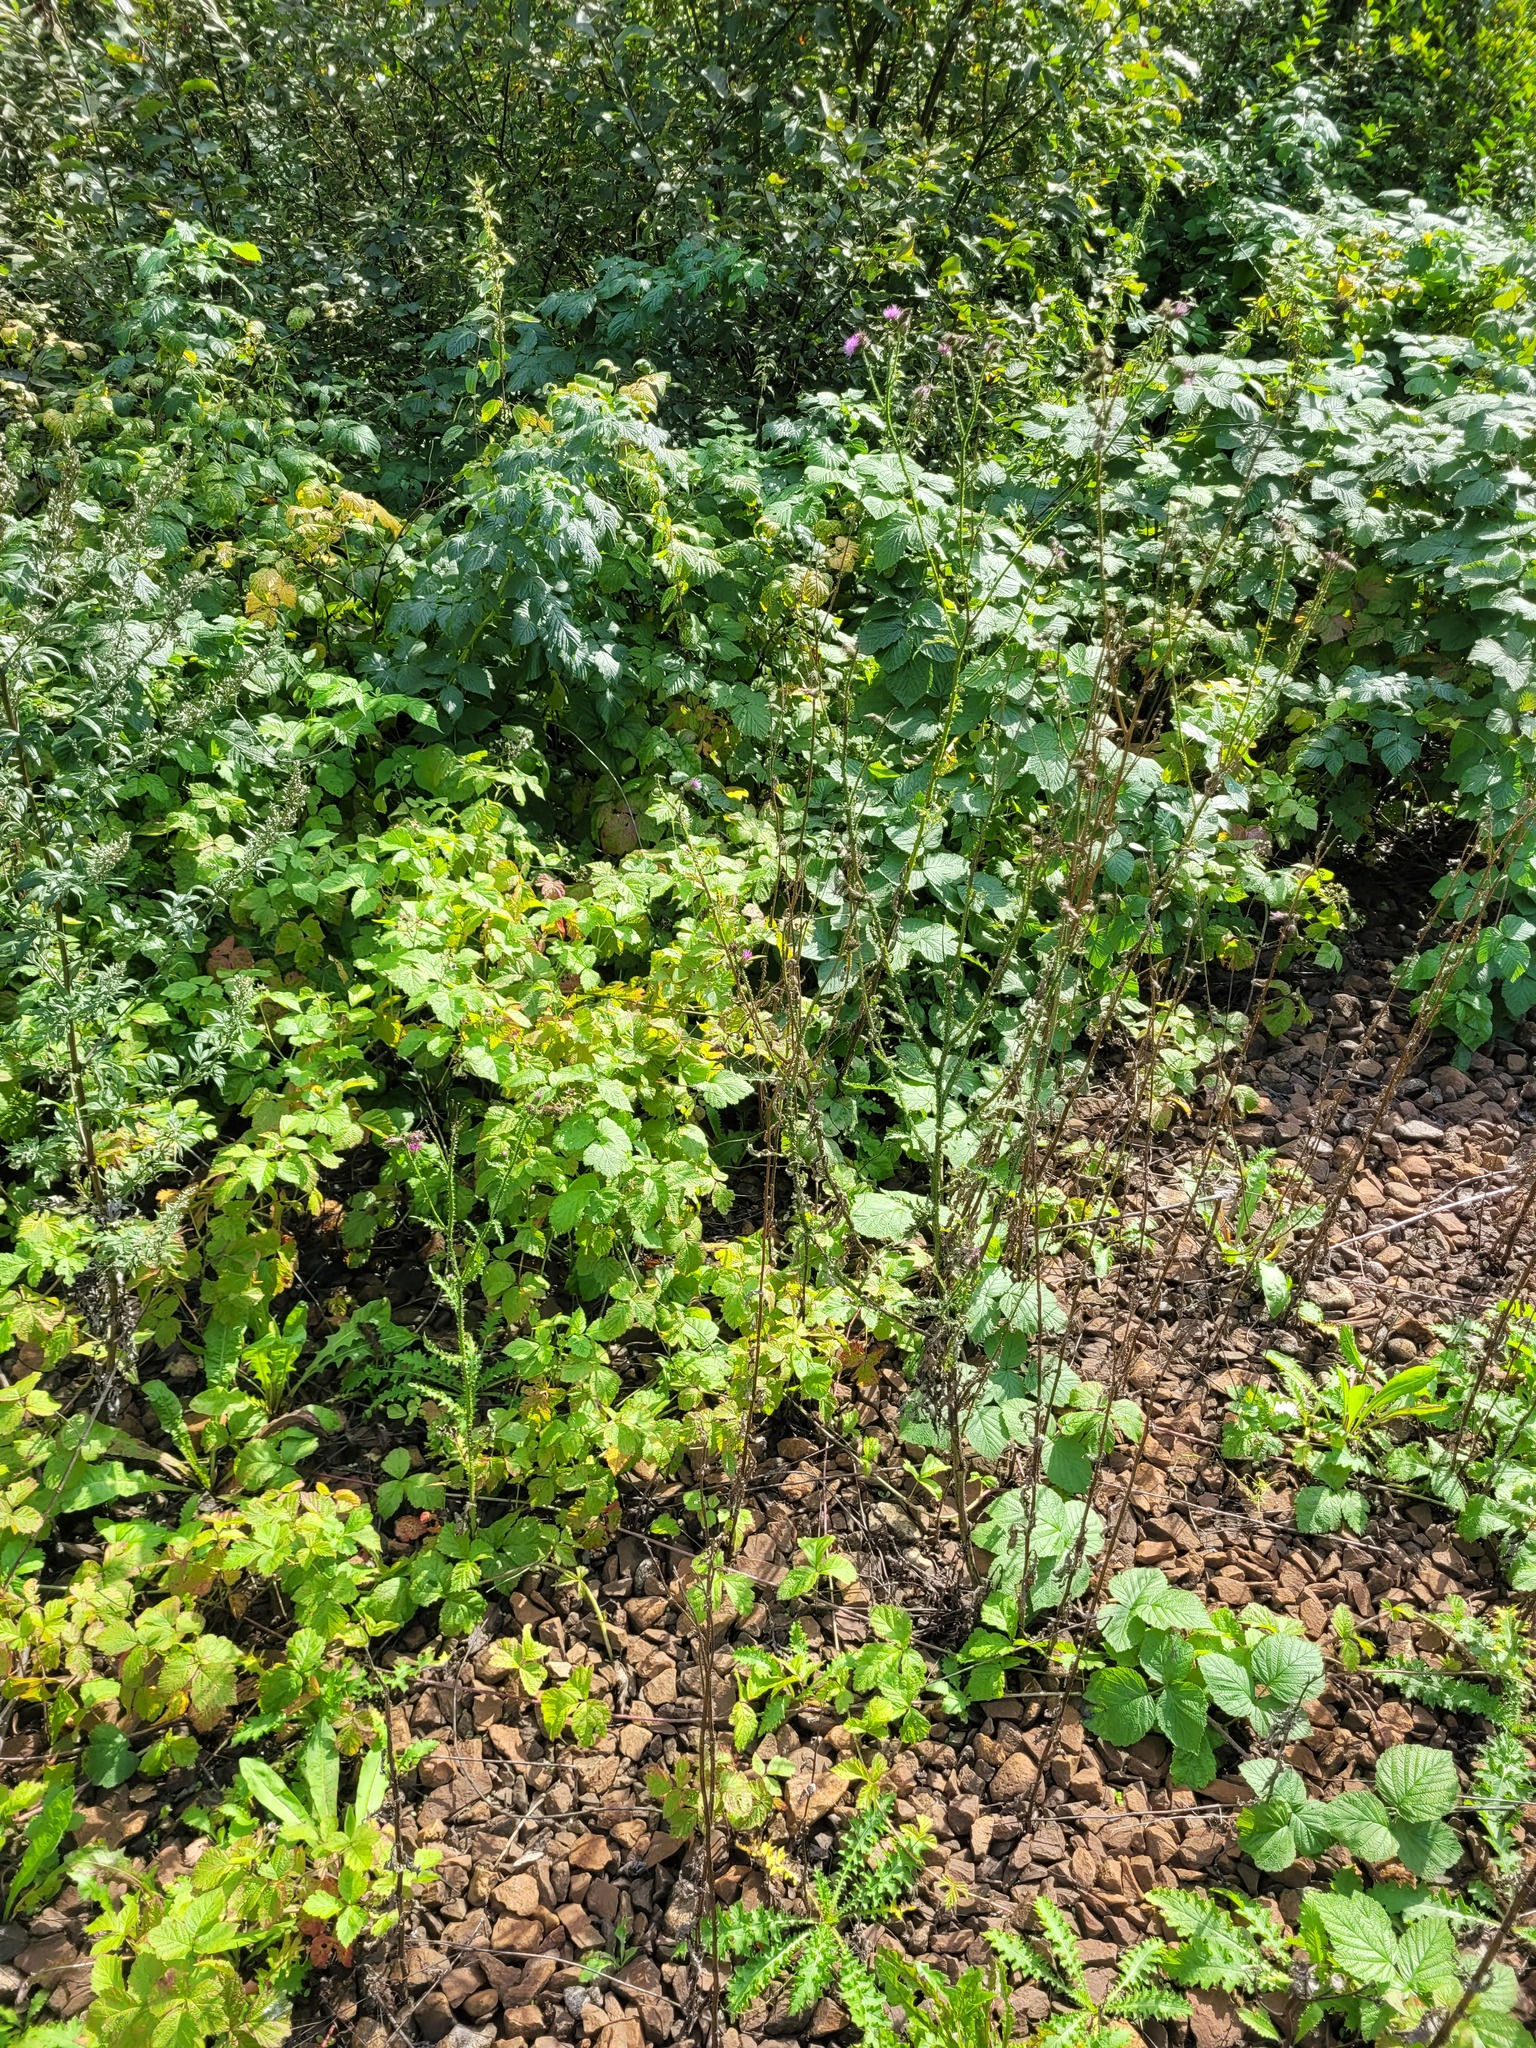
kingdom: Plantae
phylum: Tracheophyta
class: Magnoliopsida
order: Asterales
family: Asteraceae
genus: Carduus
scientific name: Carduus crispus
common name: Welted thistle
